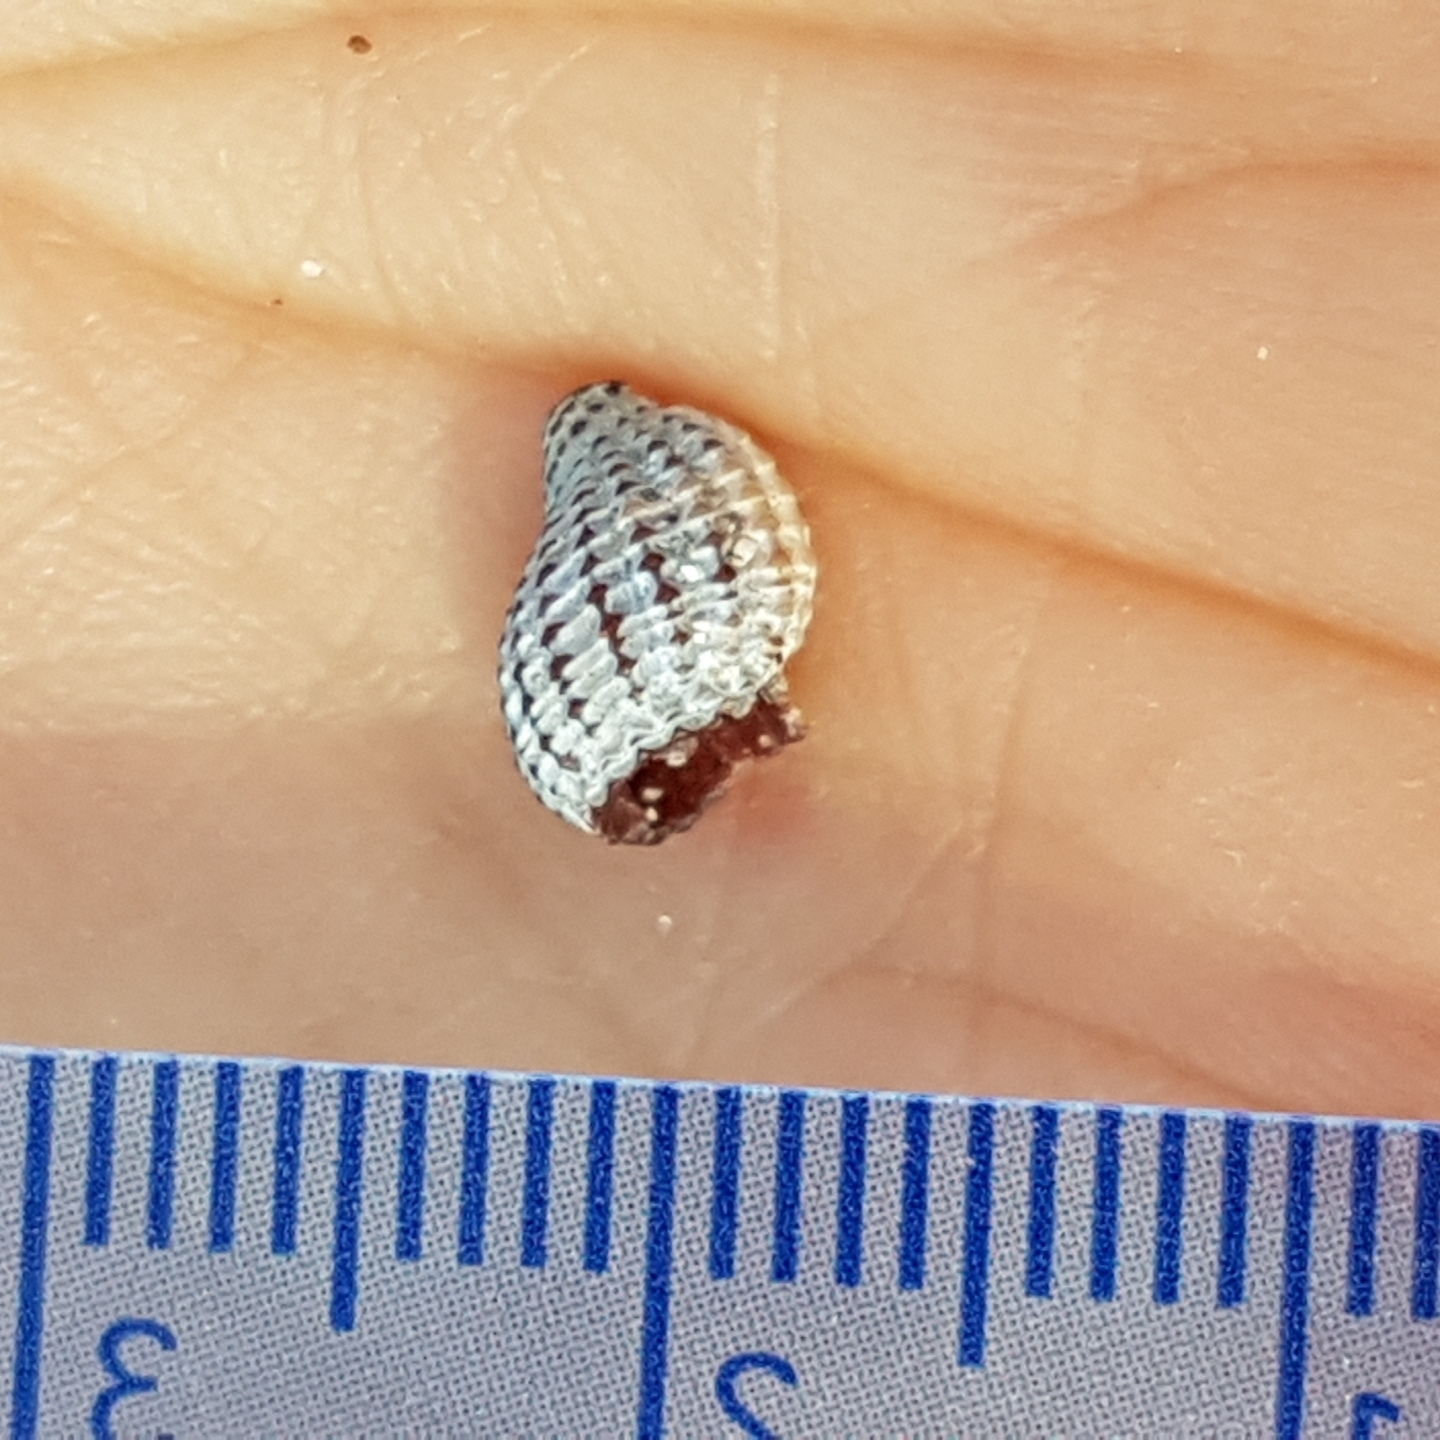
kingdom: Animalia
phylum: Mollusca
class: Gastropoda
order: Neogastropoda
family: Raphitomidae
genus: Raphitoma
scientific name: Raphitoma purpurea
